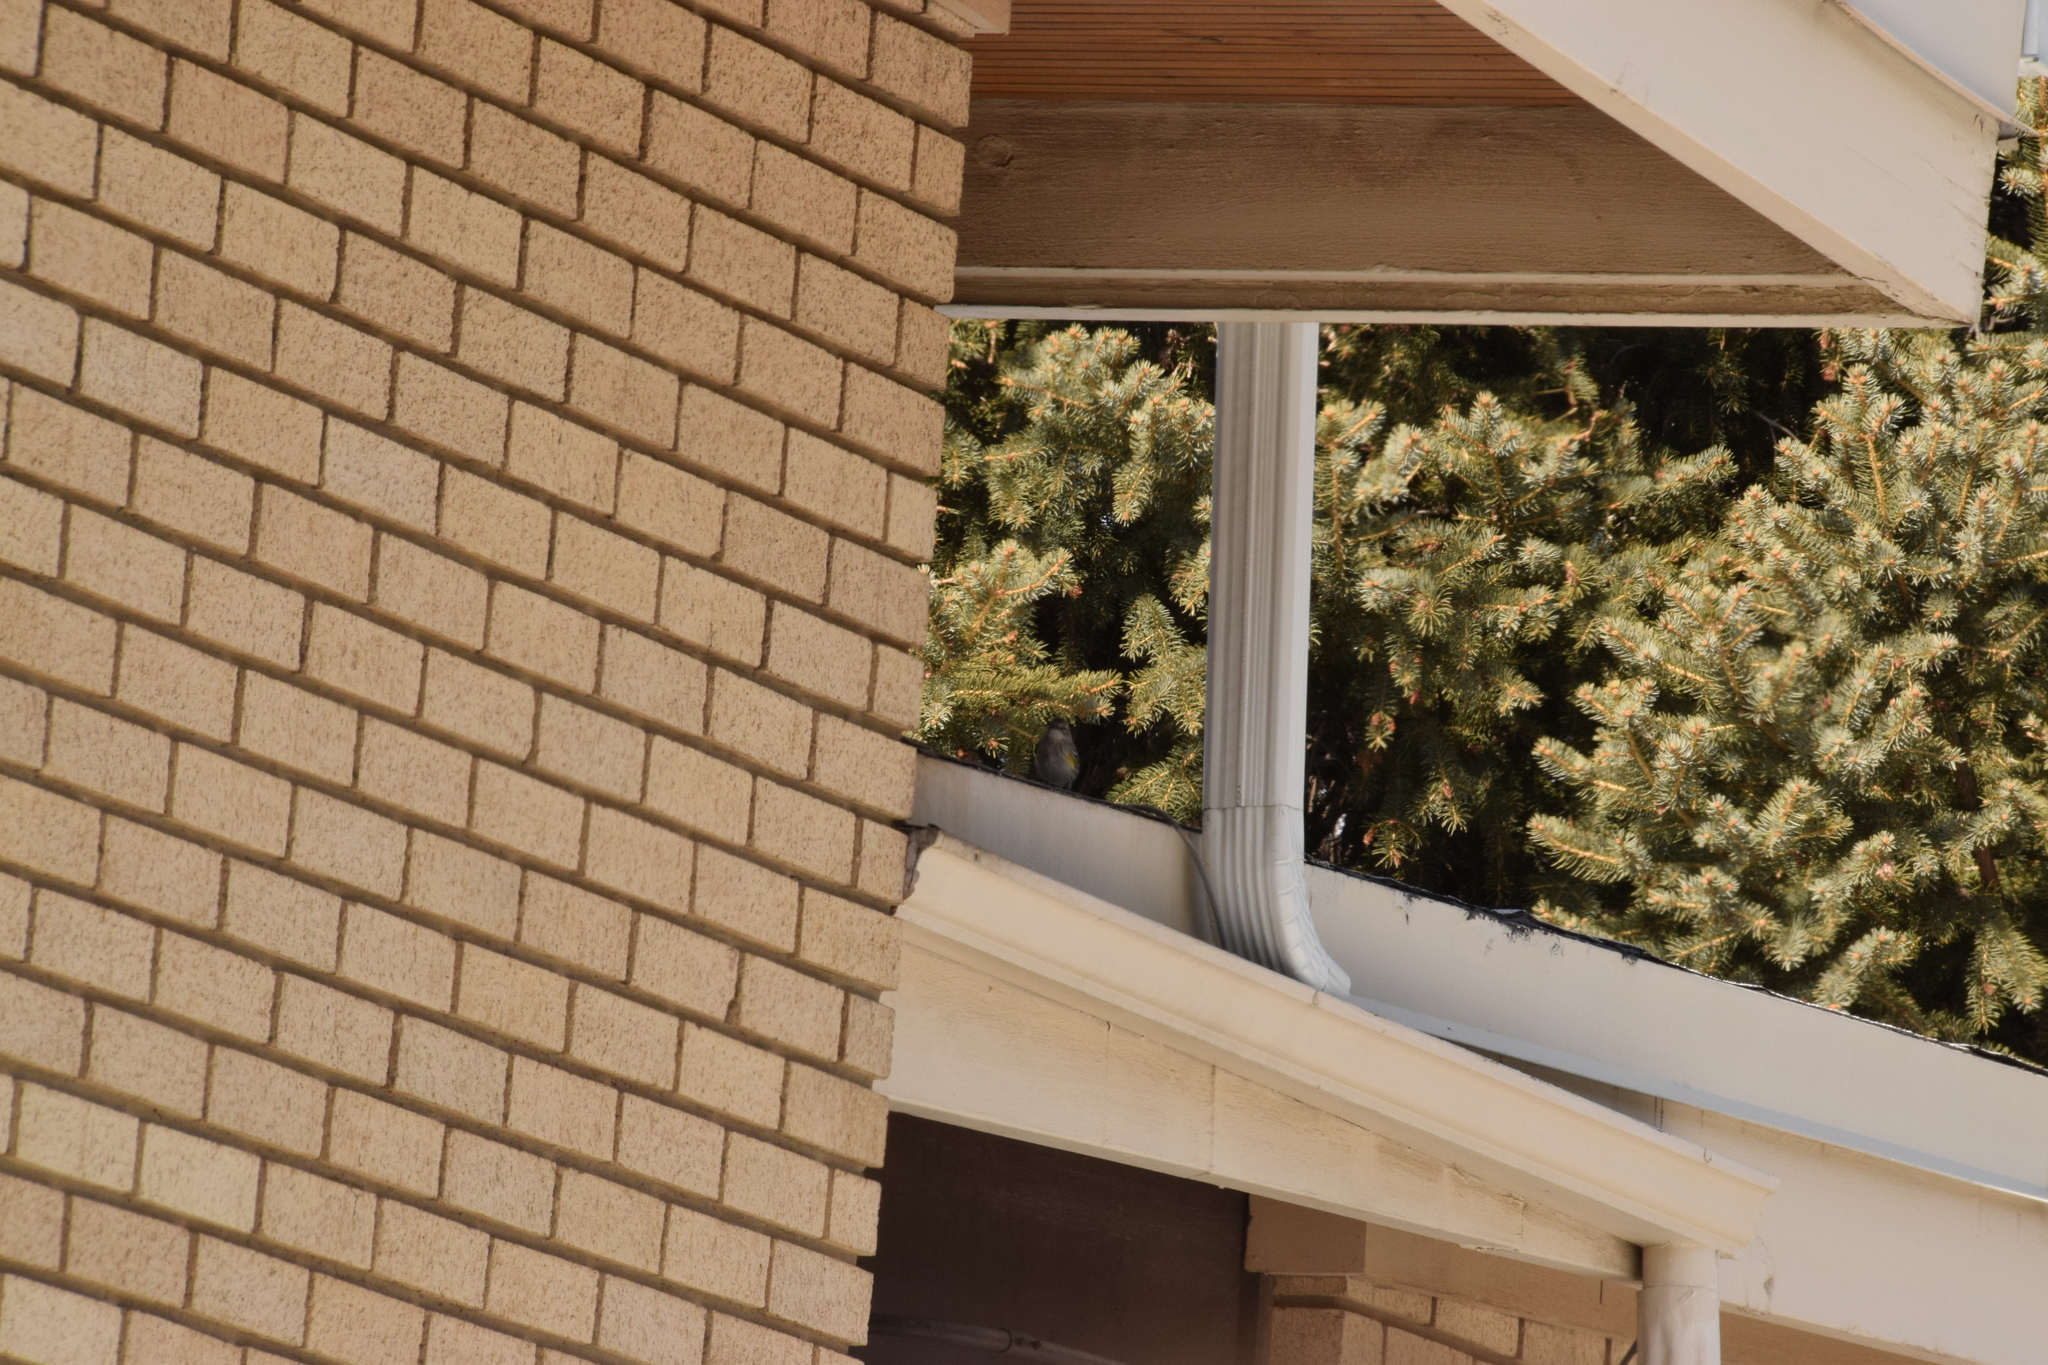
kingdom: Animalia
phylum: Chordata
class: Aves
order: Passeriformes
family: Parulidae
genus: Setophaga
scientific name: Setophaga auduboni
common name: Audubon's warbler
